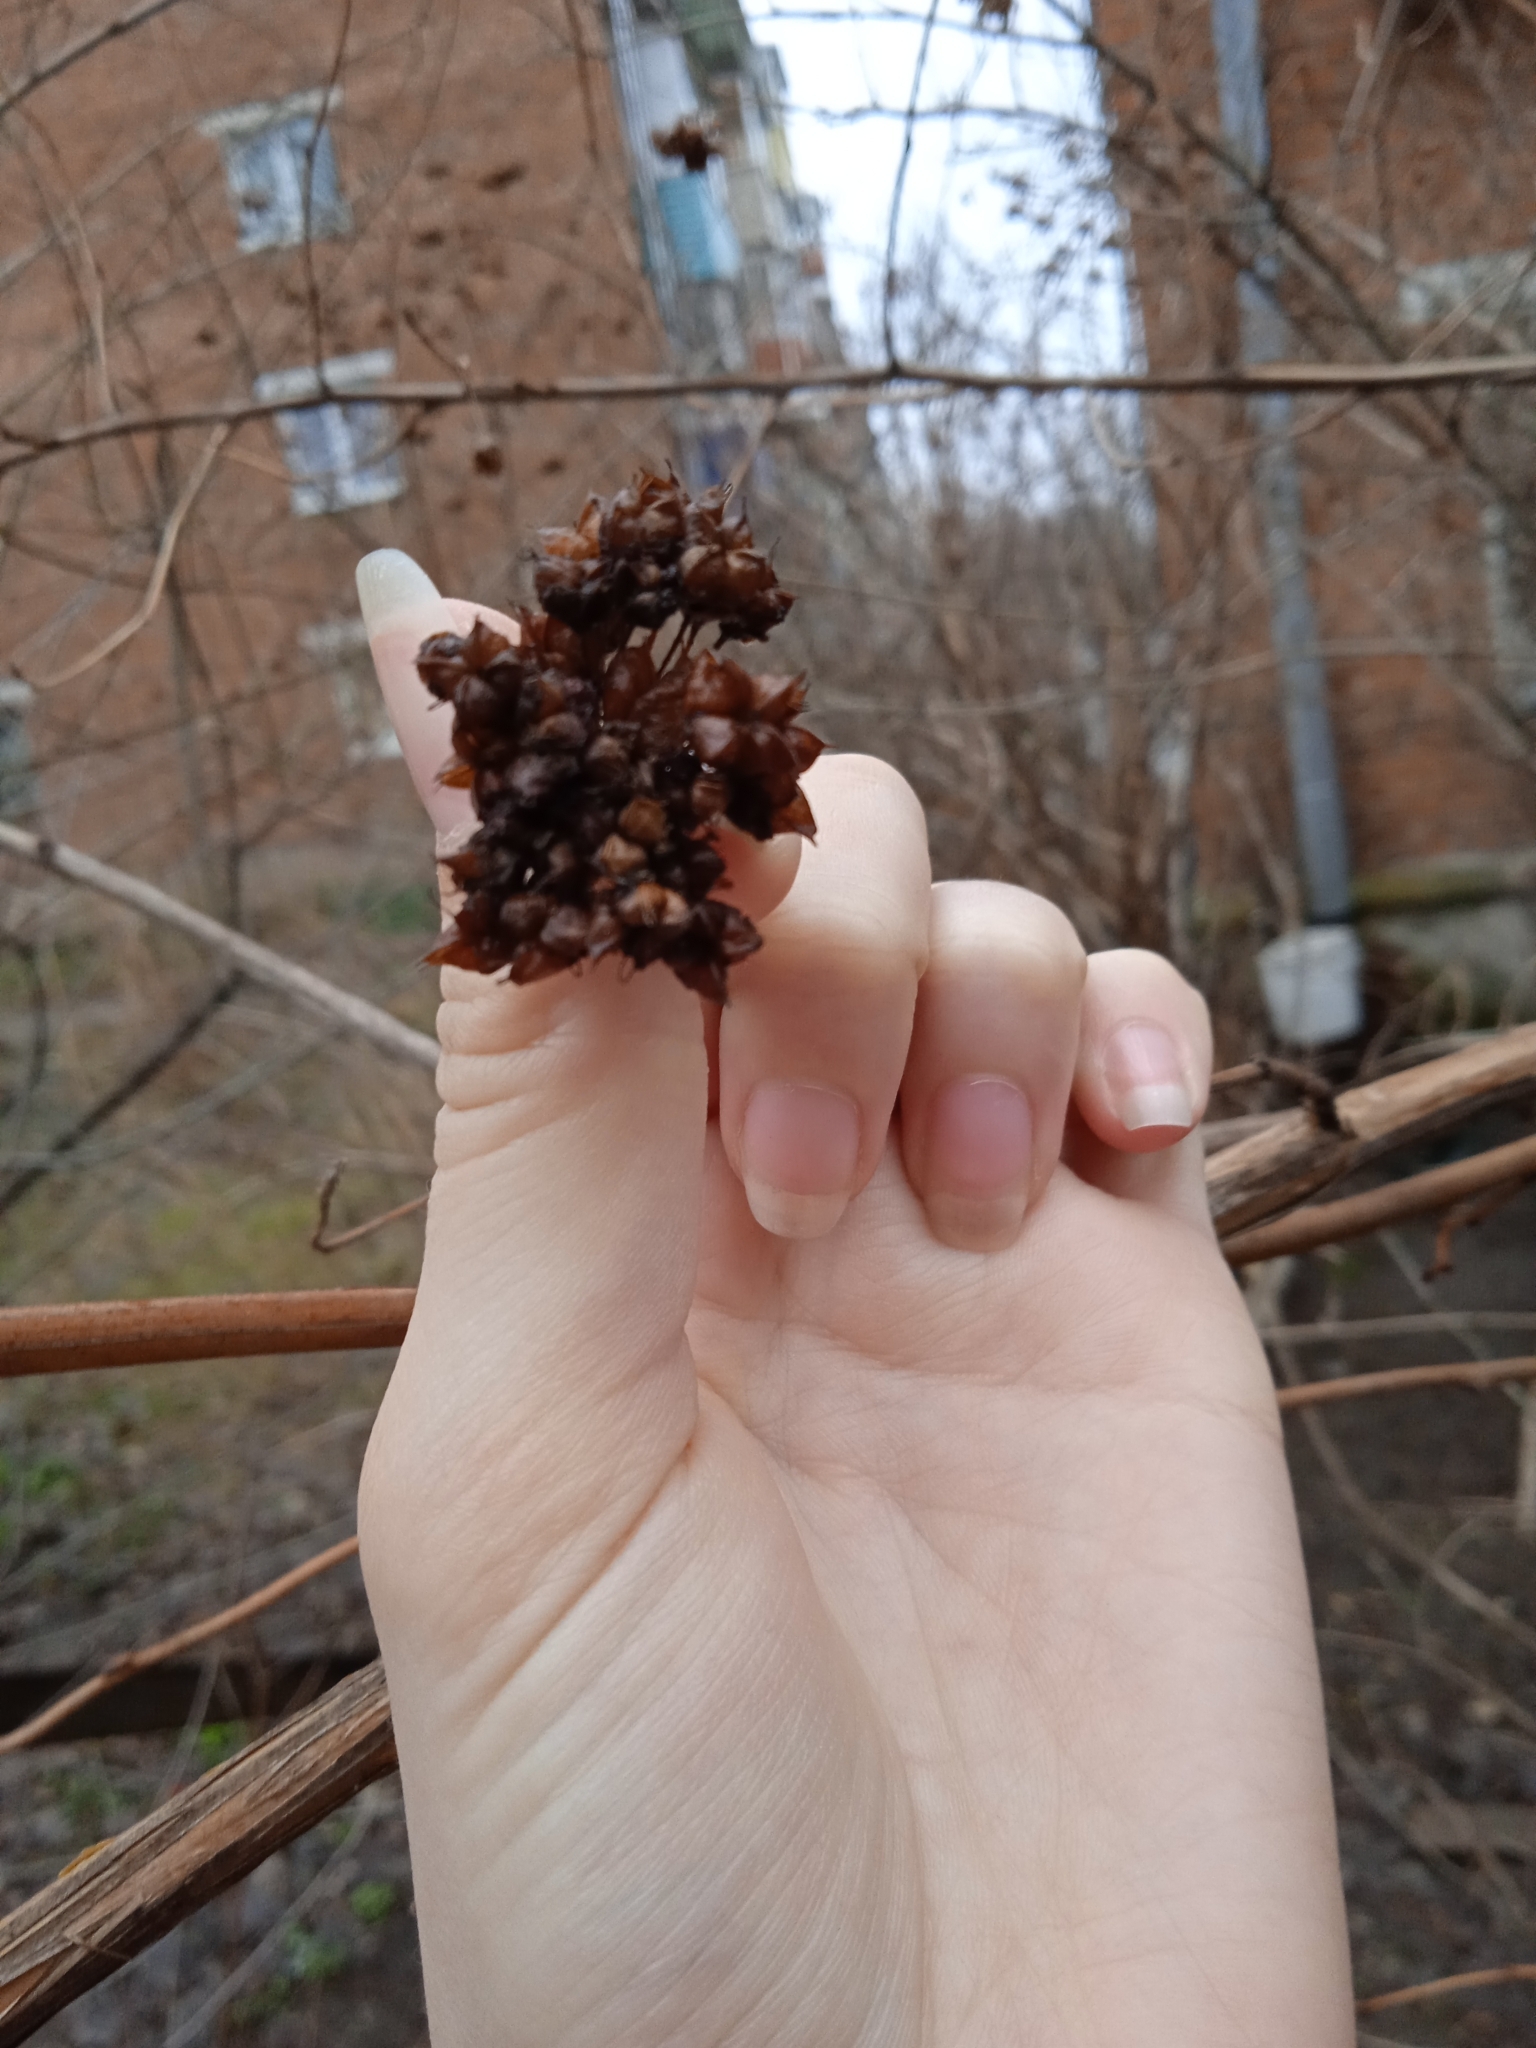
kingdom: Plantae
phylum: Tracheophyta
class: Magnoliopsida
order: Rosales
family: Rosaceae
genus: Physocarpus
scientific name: Physocarpus opulifolius
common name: Ninebark
